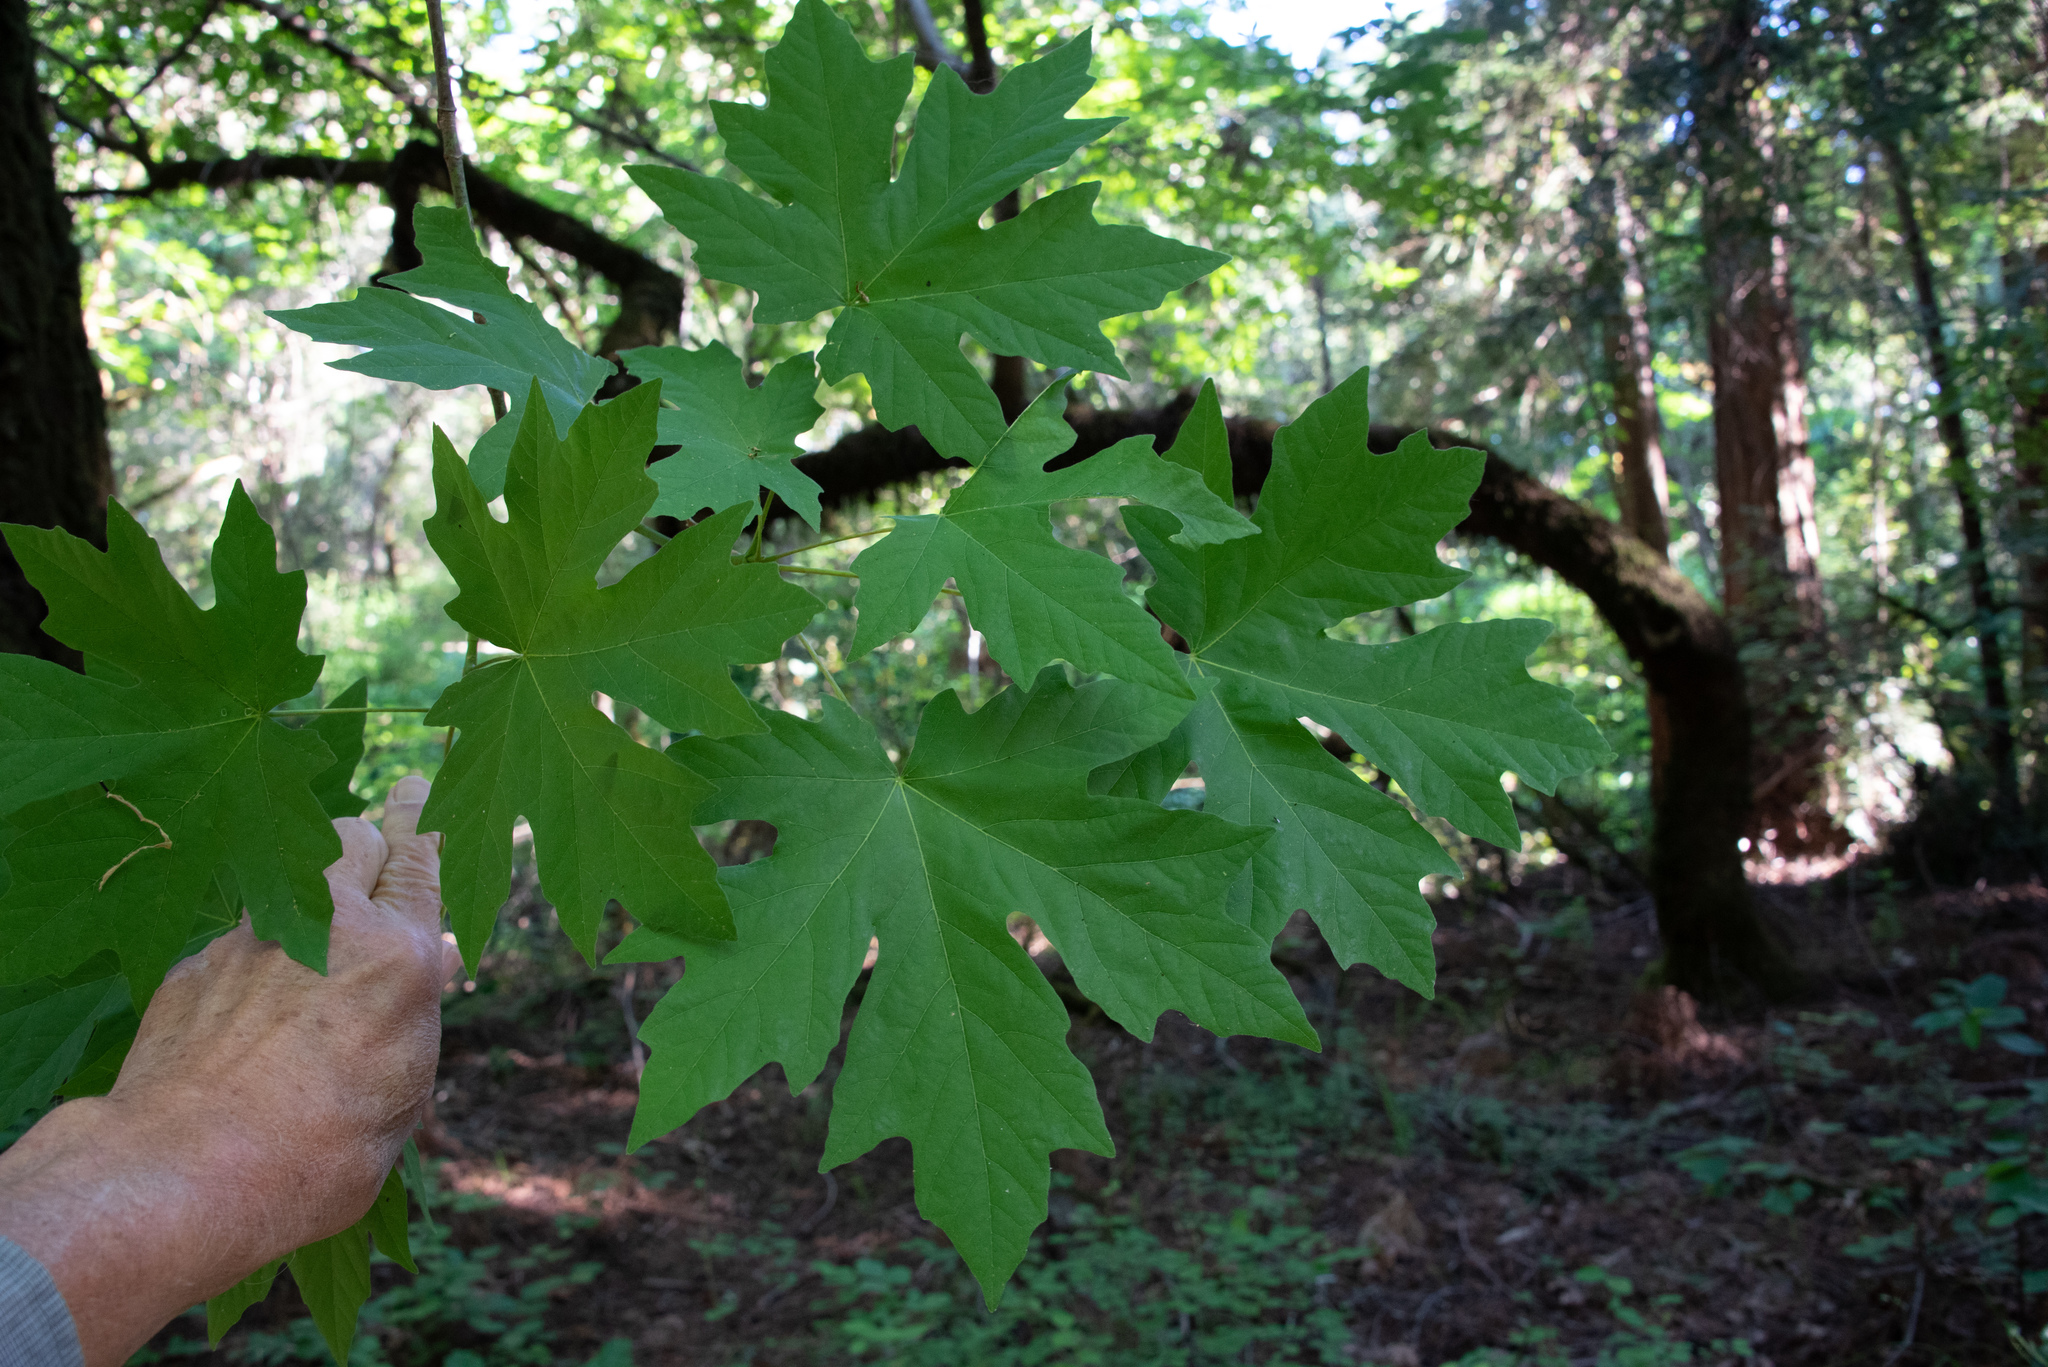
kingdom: Plantae
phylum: Tracheophyta
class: Magnoliopsida
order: Sapindales
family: Sapindaceae
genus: Acer
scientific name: Acer macrophyllum
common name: Oregon maple
